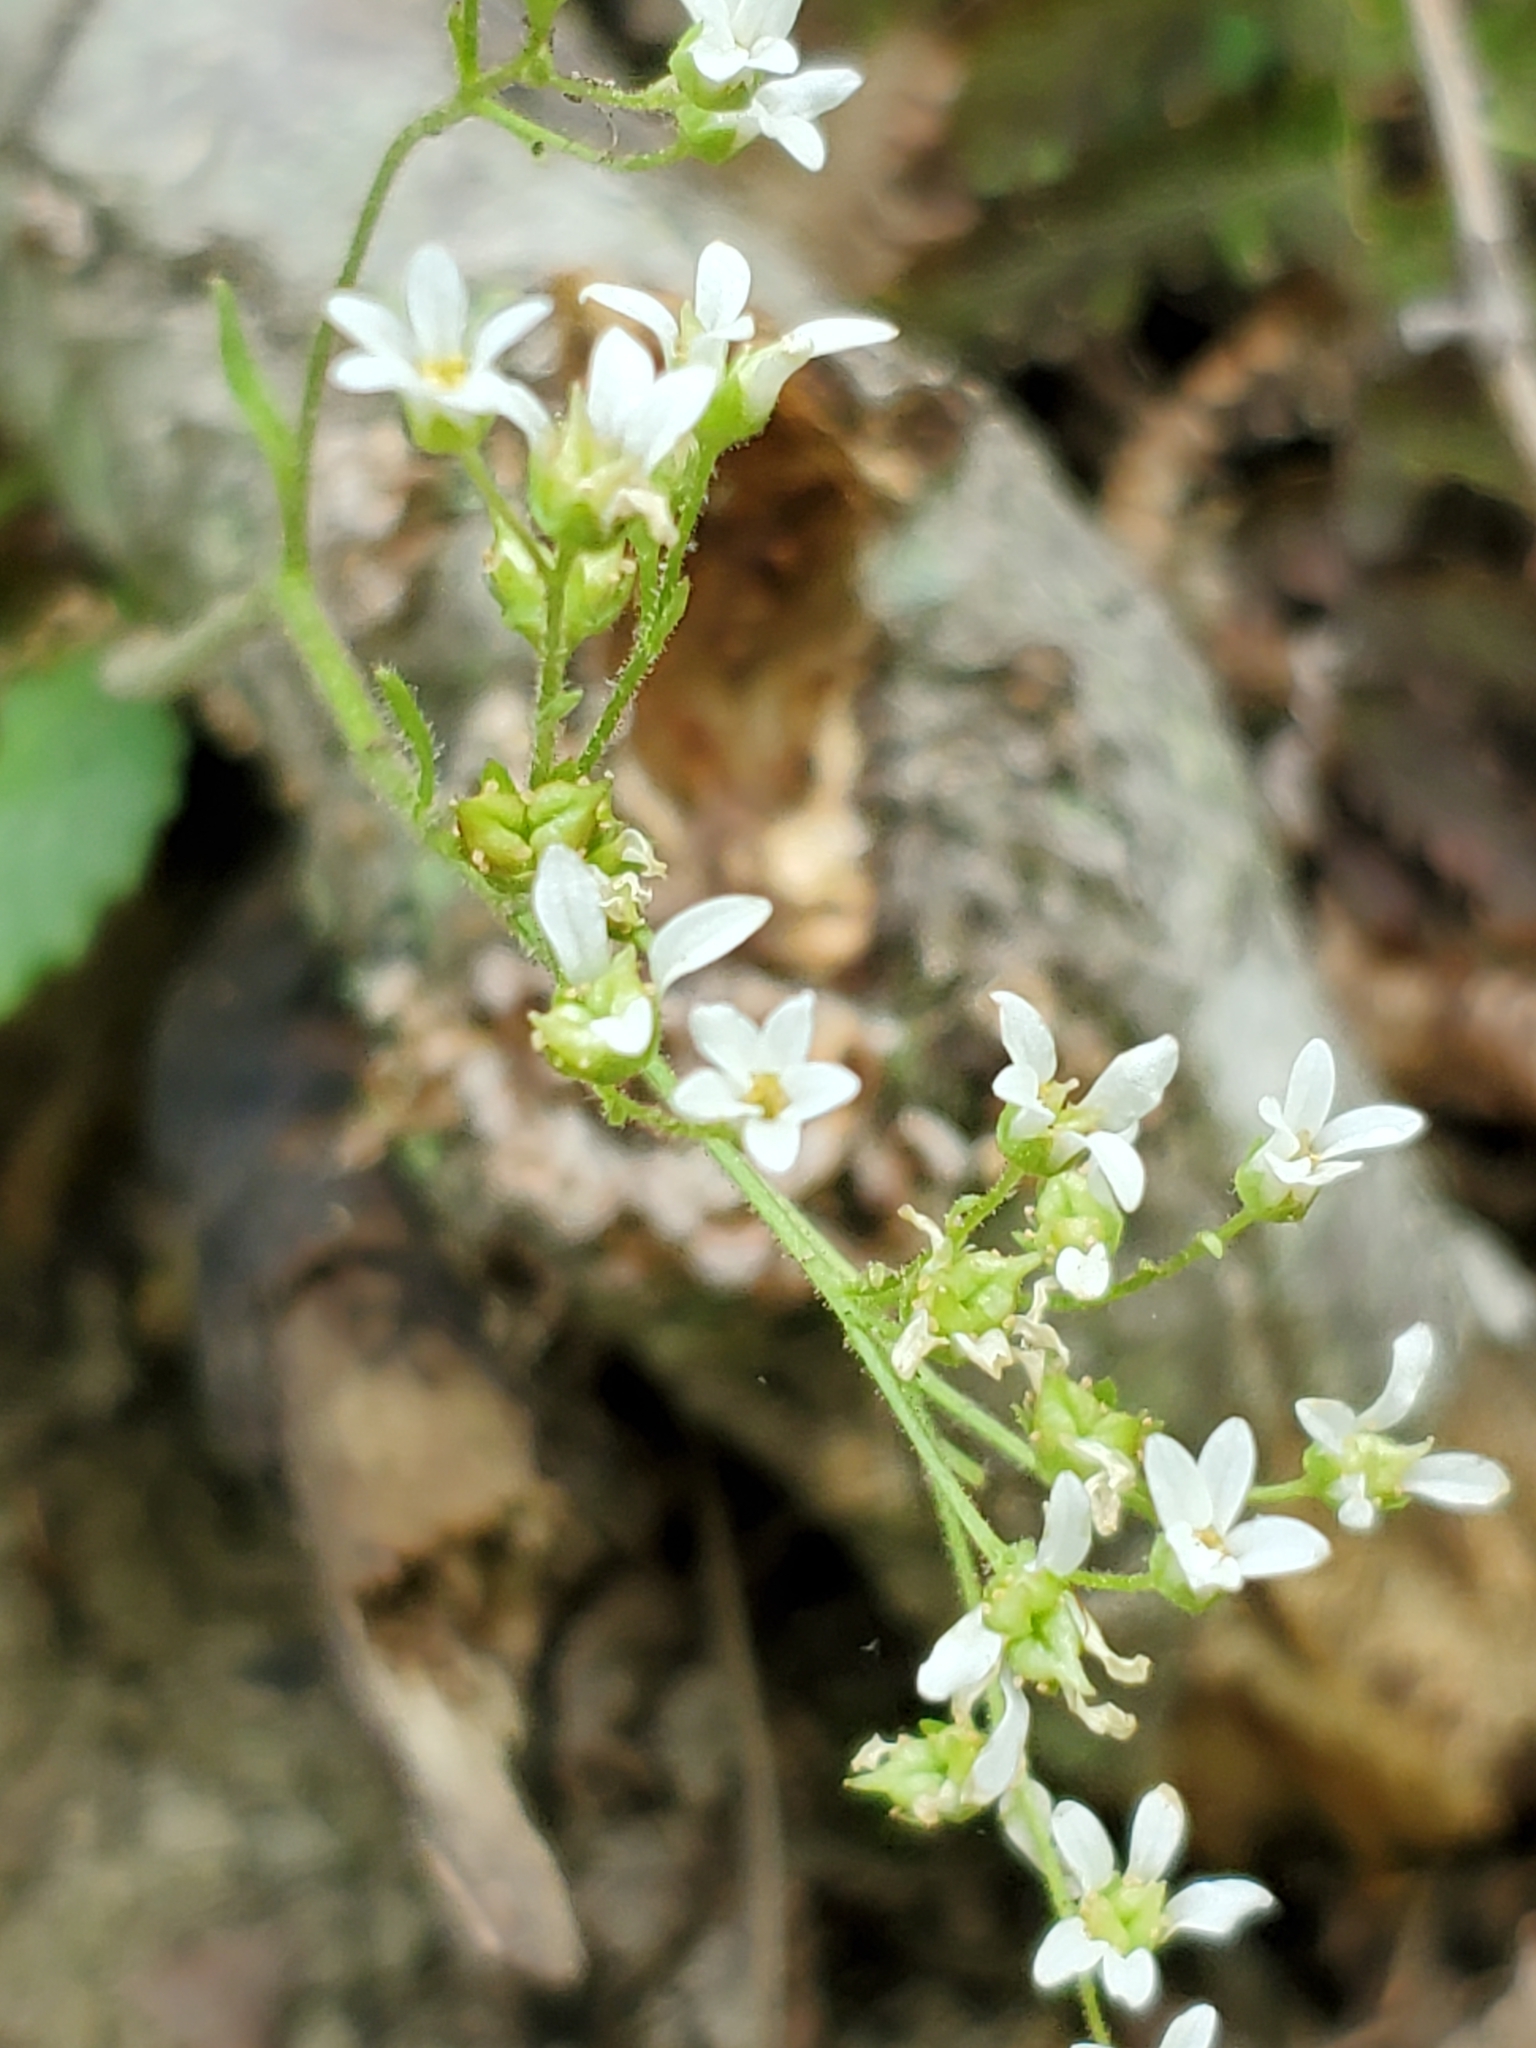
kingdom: Plantae
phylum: Tracheophyta
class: Magnoliopsida
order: Saxifragales
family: Saxifragaceae
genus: Micranthes
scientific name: Micranthes virginiensis
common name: Early saxifrage
